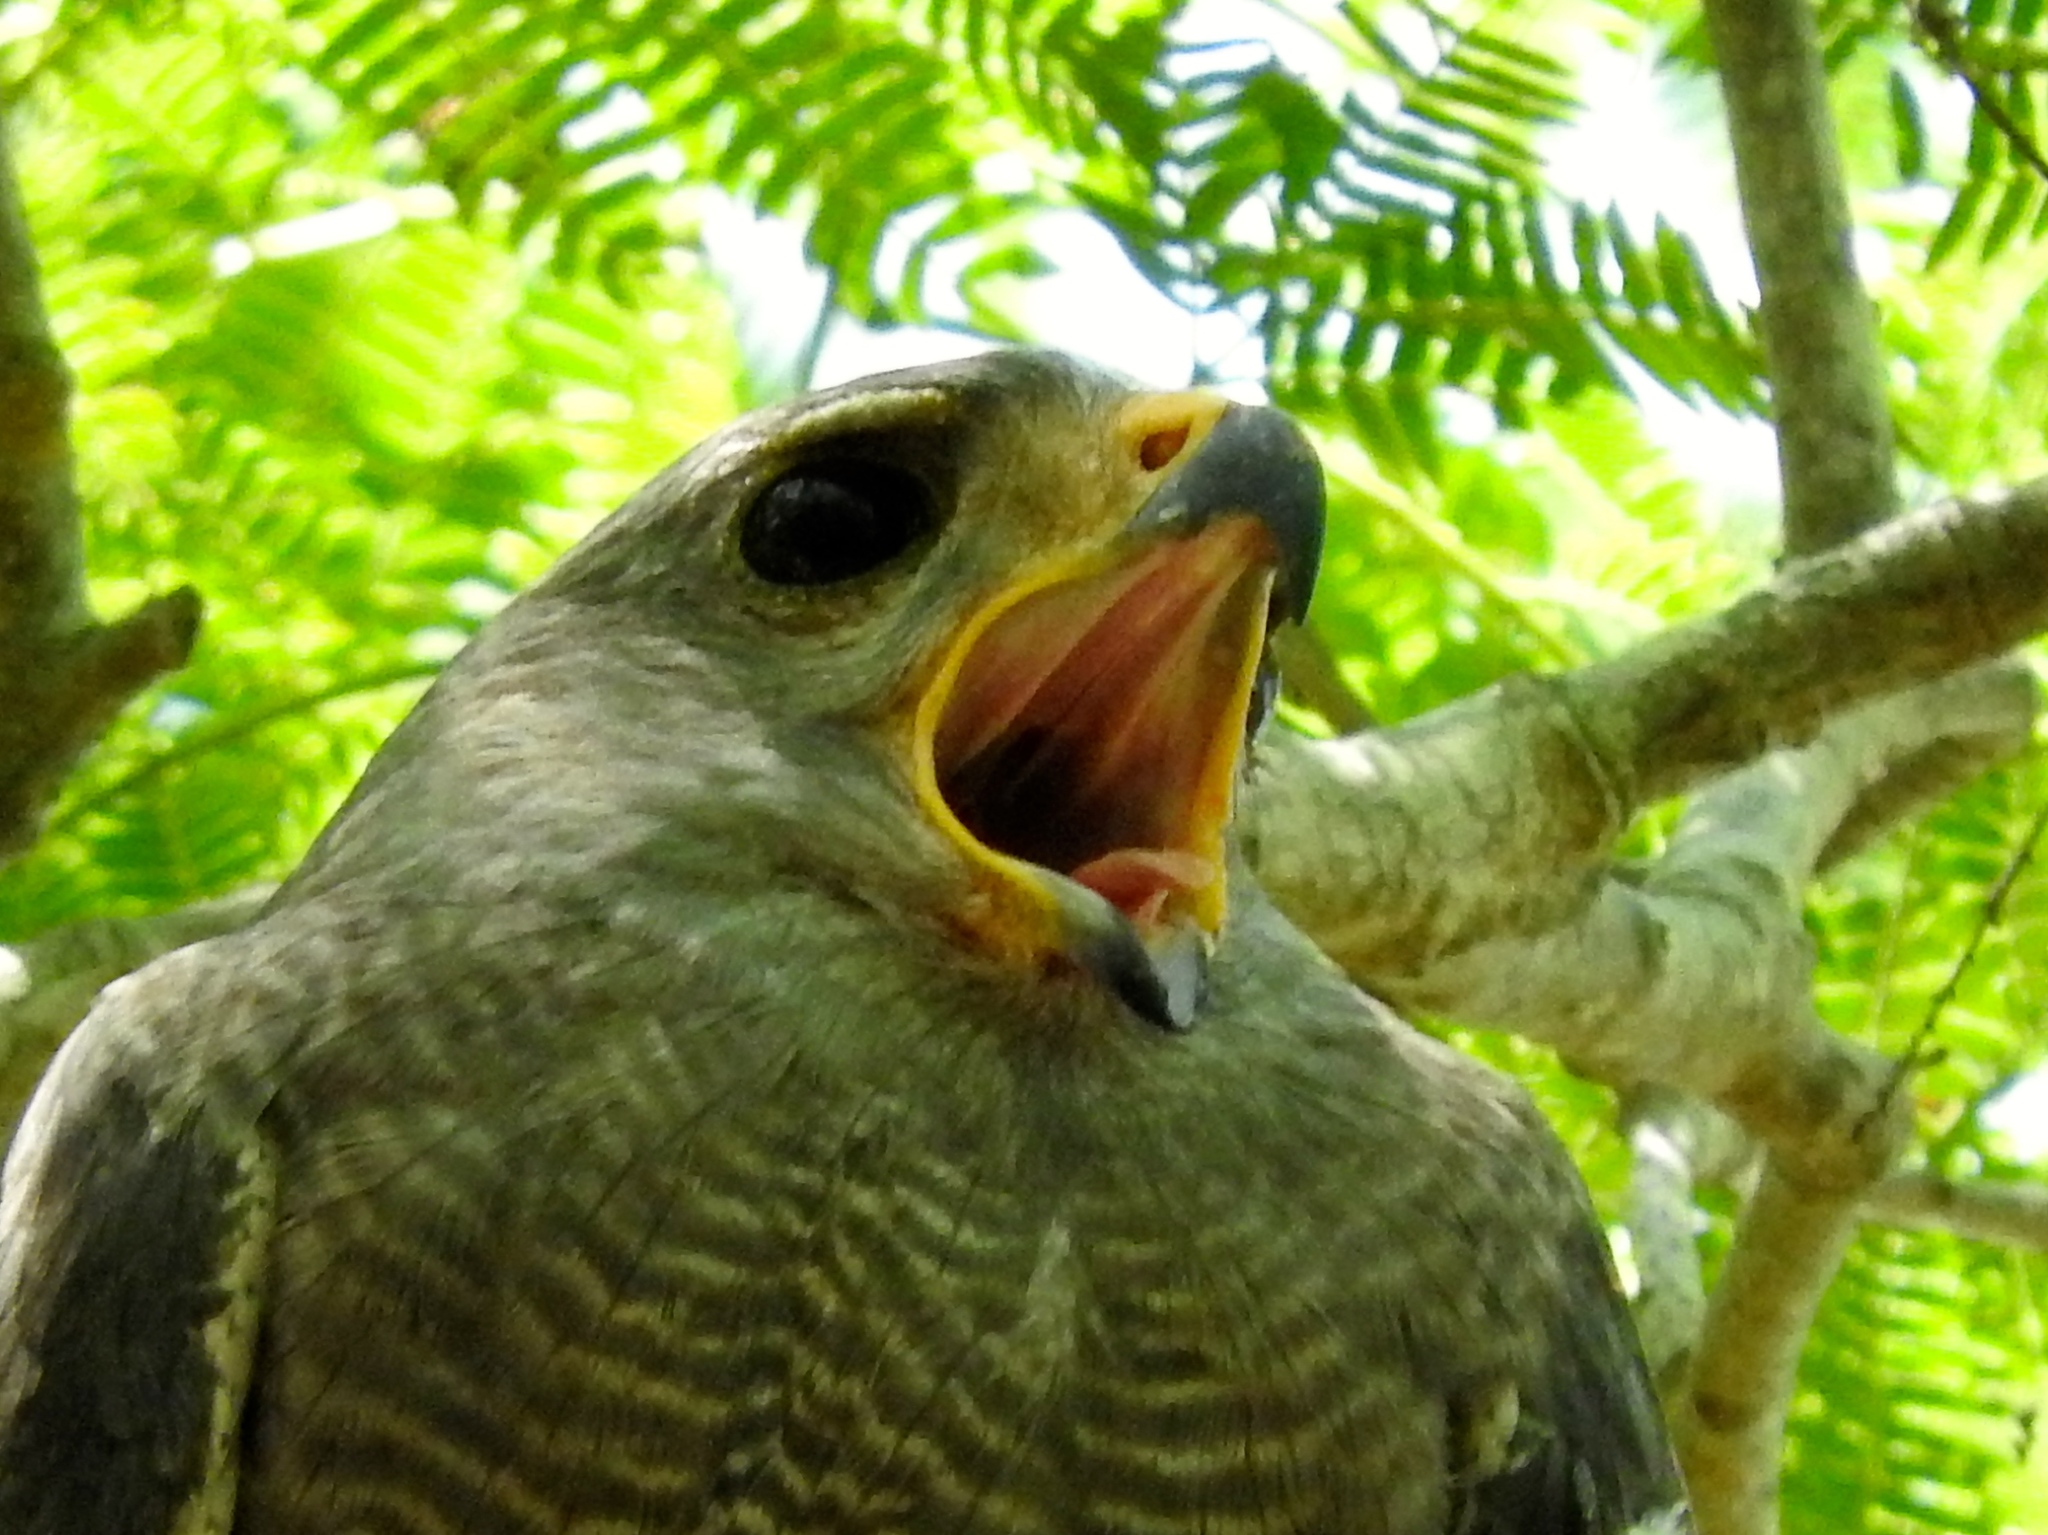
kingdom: Animalia
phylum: Chordata
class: Aves
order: Accipitriformes
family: Accipitridae
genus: Buteo
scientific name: Buteo nitidus
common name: Grey-lined hawk
